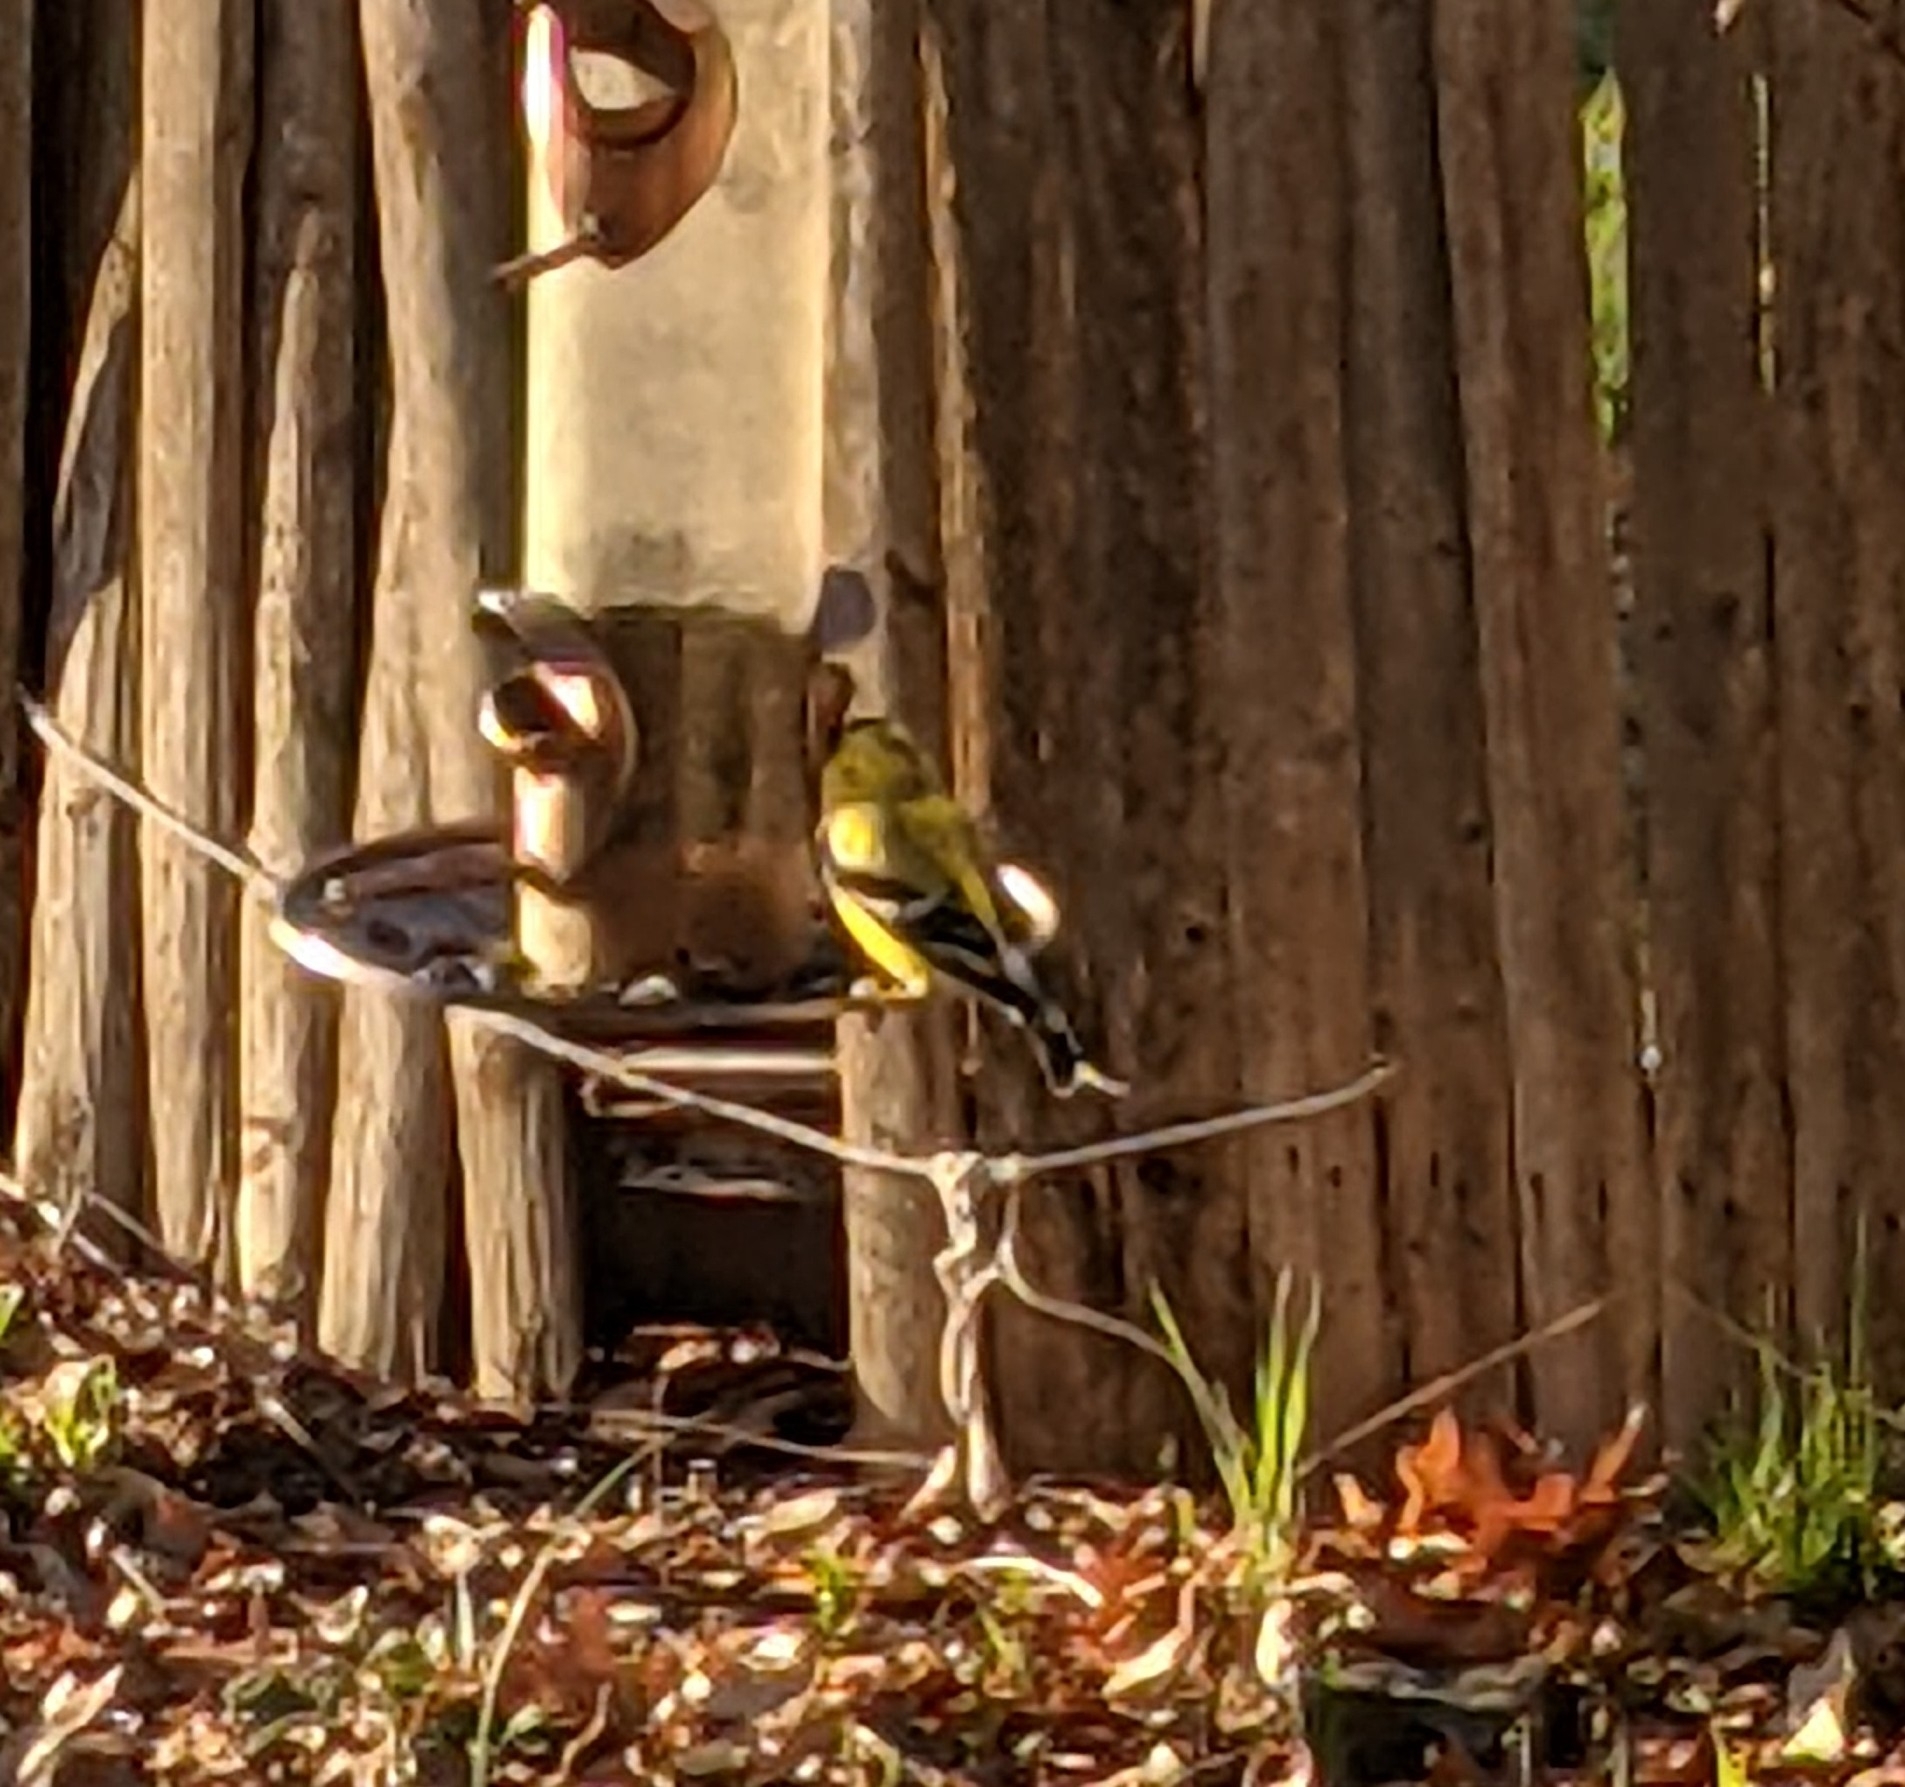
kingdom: Animalia
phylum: Chordata
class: Aves
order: Passeriformes
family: Fringillidae
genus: Spinus
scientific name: Spinus tristis
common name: American goldfinch
